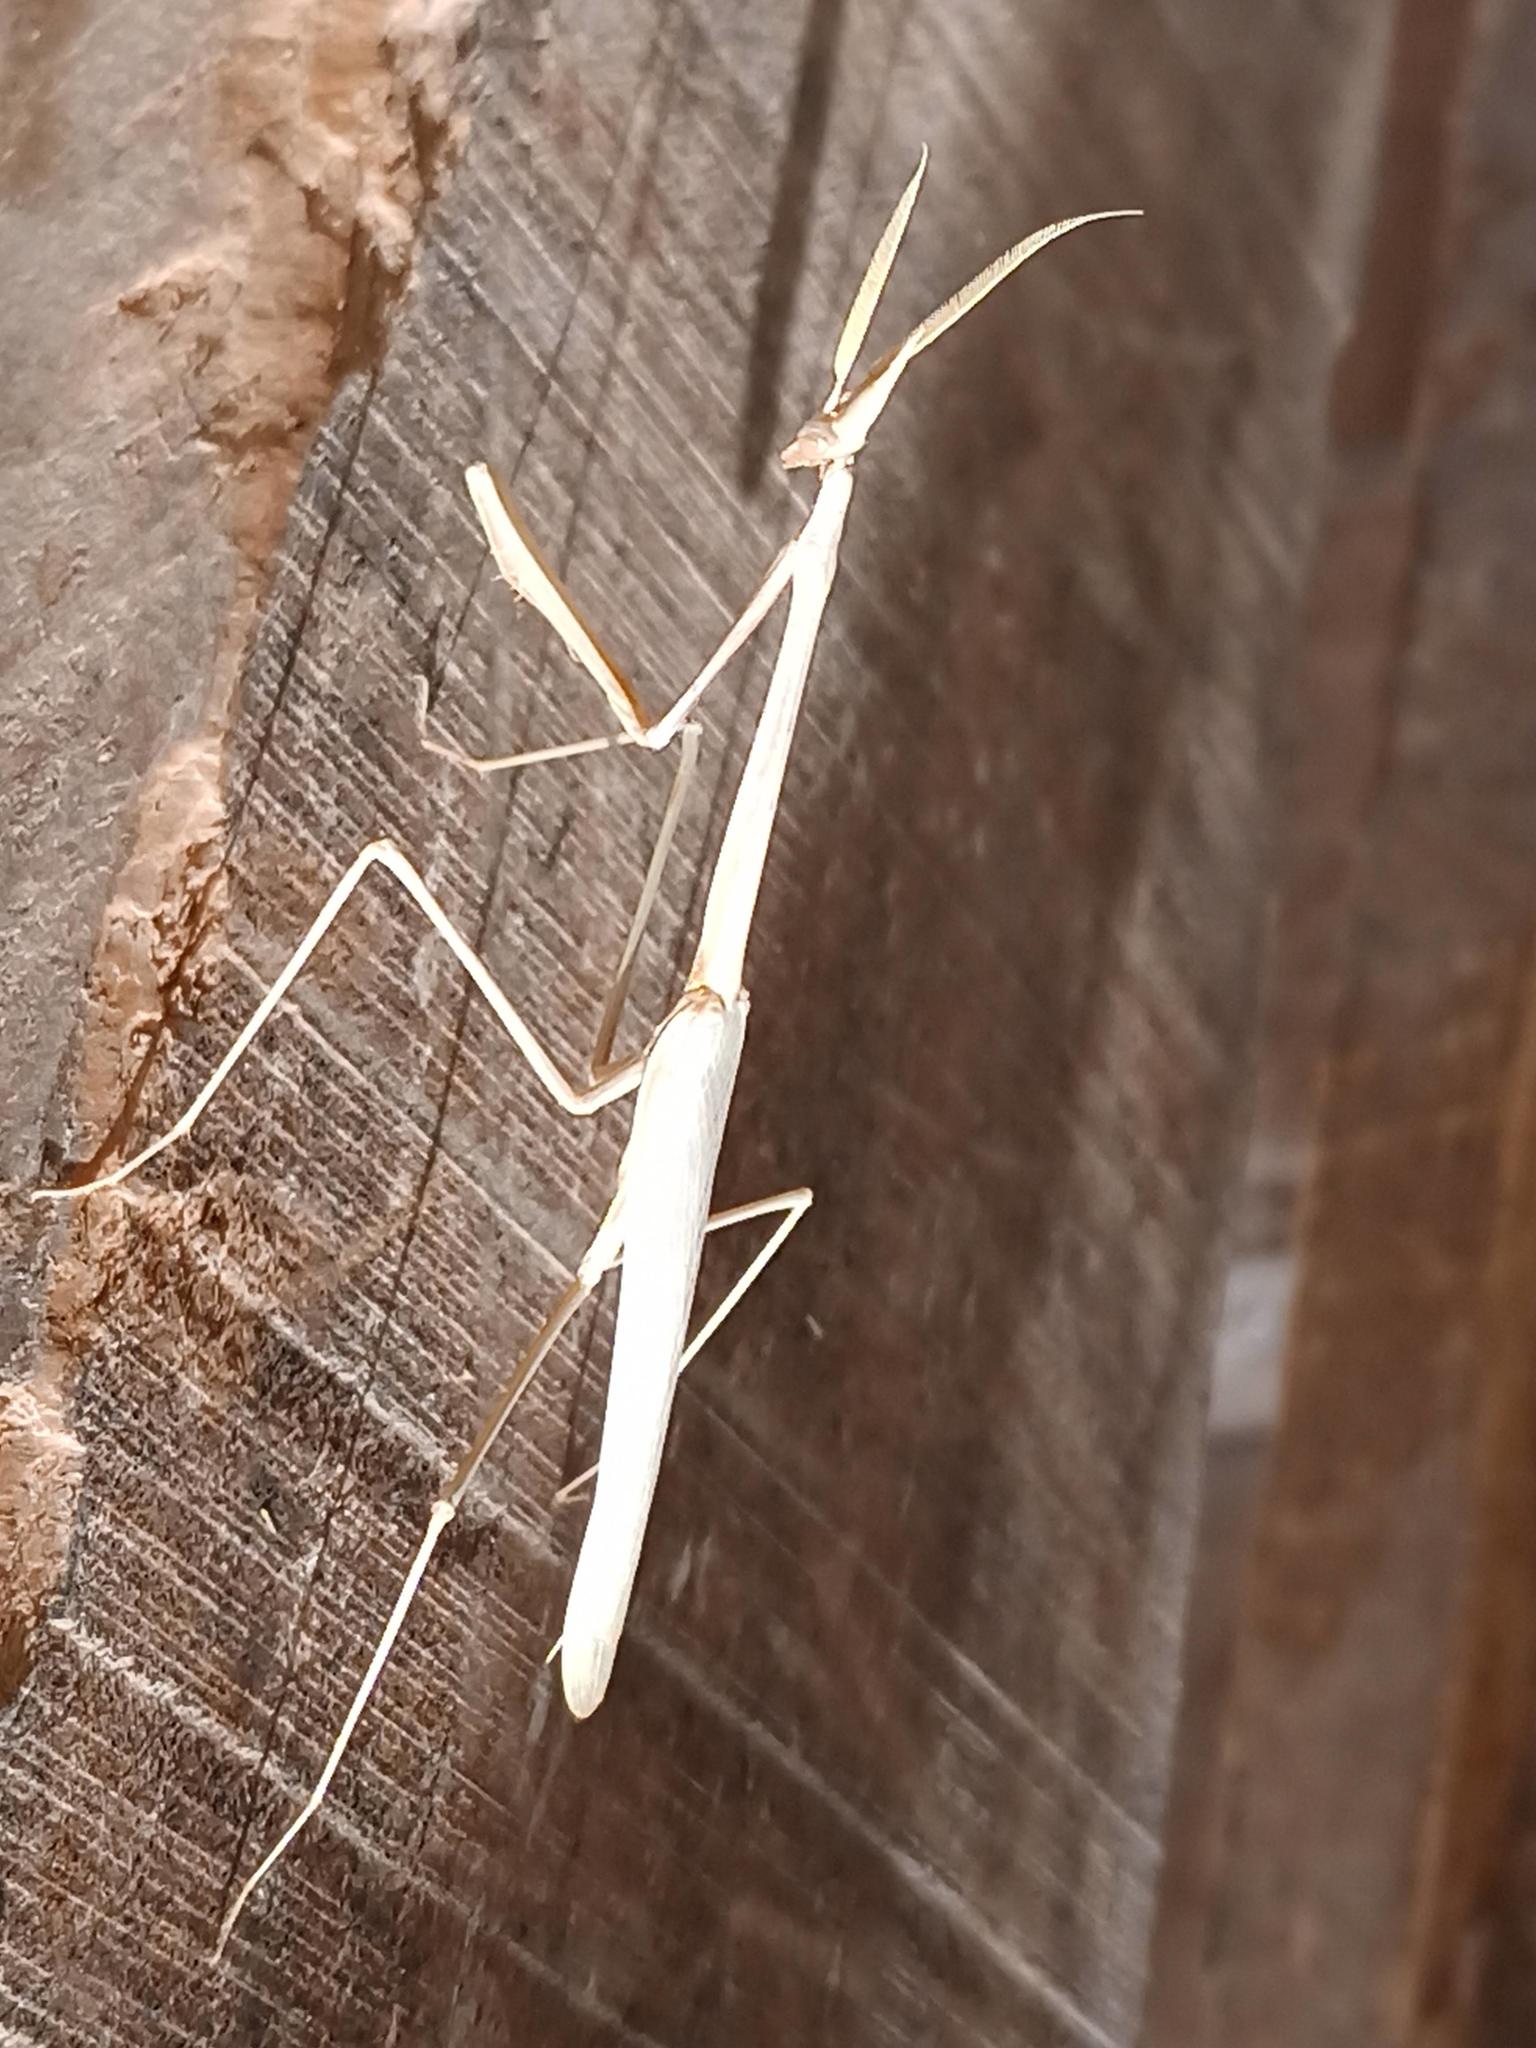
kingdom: Animalia
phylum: Arthropoda
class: Insecta
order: Mantodea
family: Empusidae
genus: Hypsicorypha
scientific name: Hypsicorypha gracilis
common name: Sublime conehead mantis
